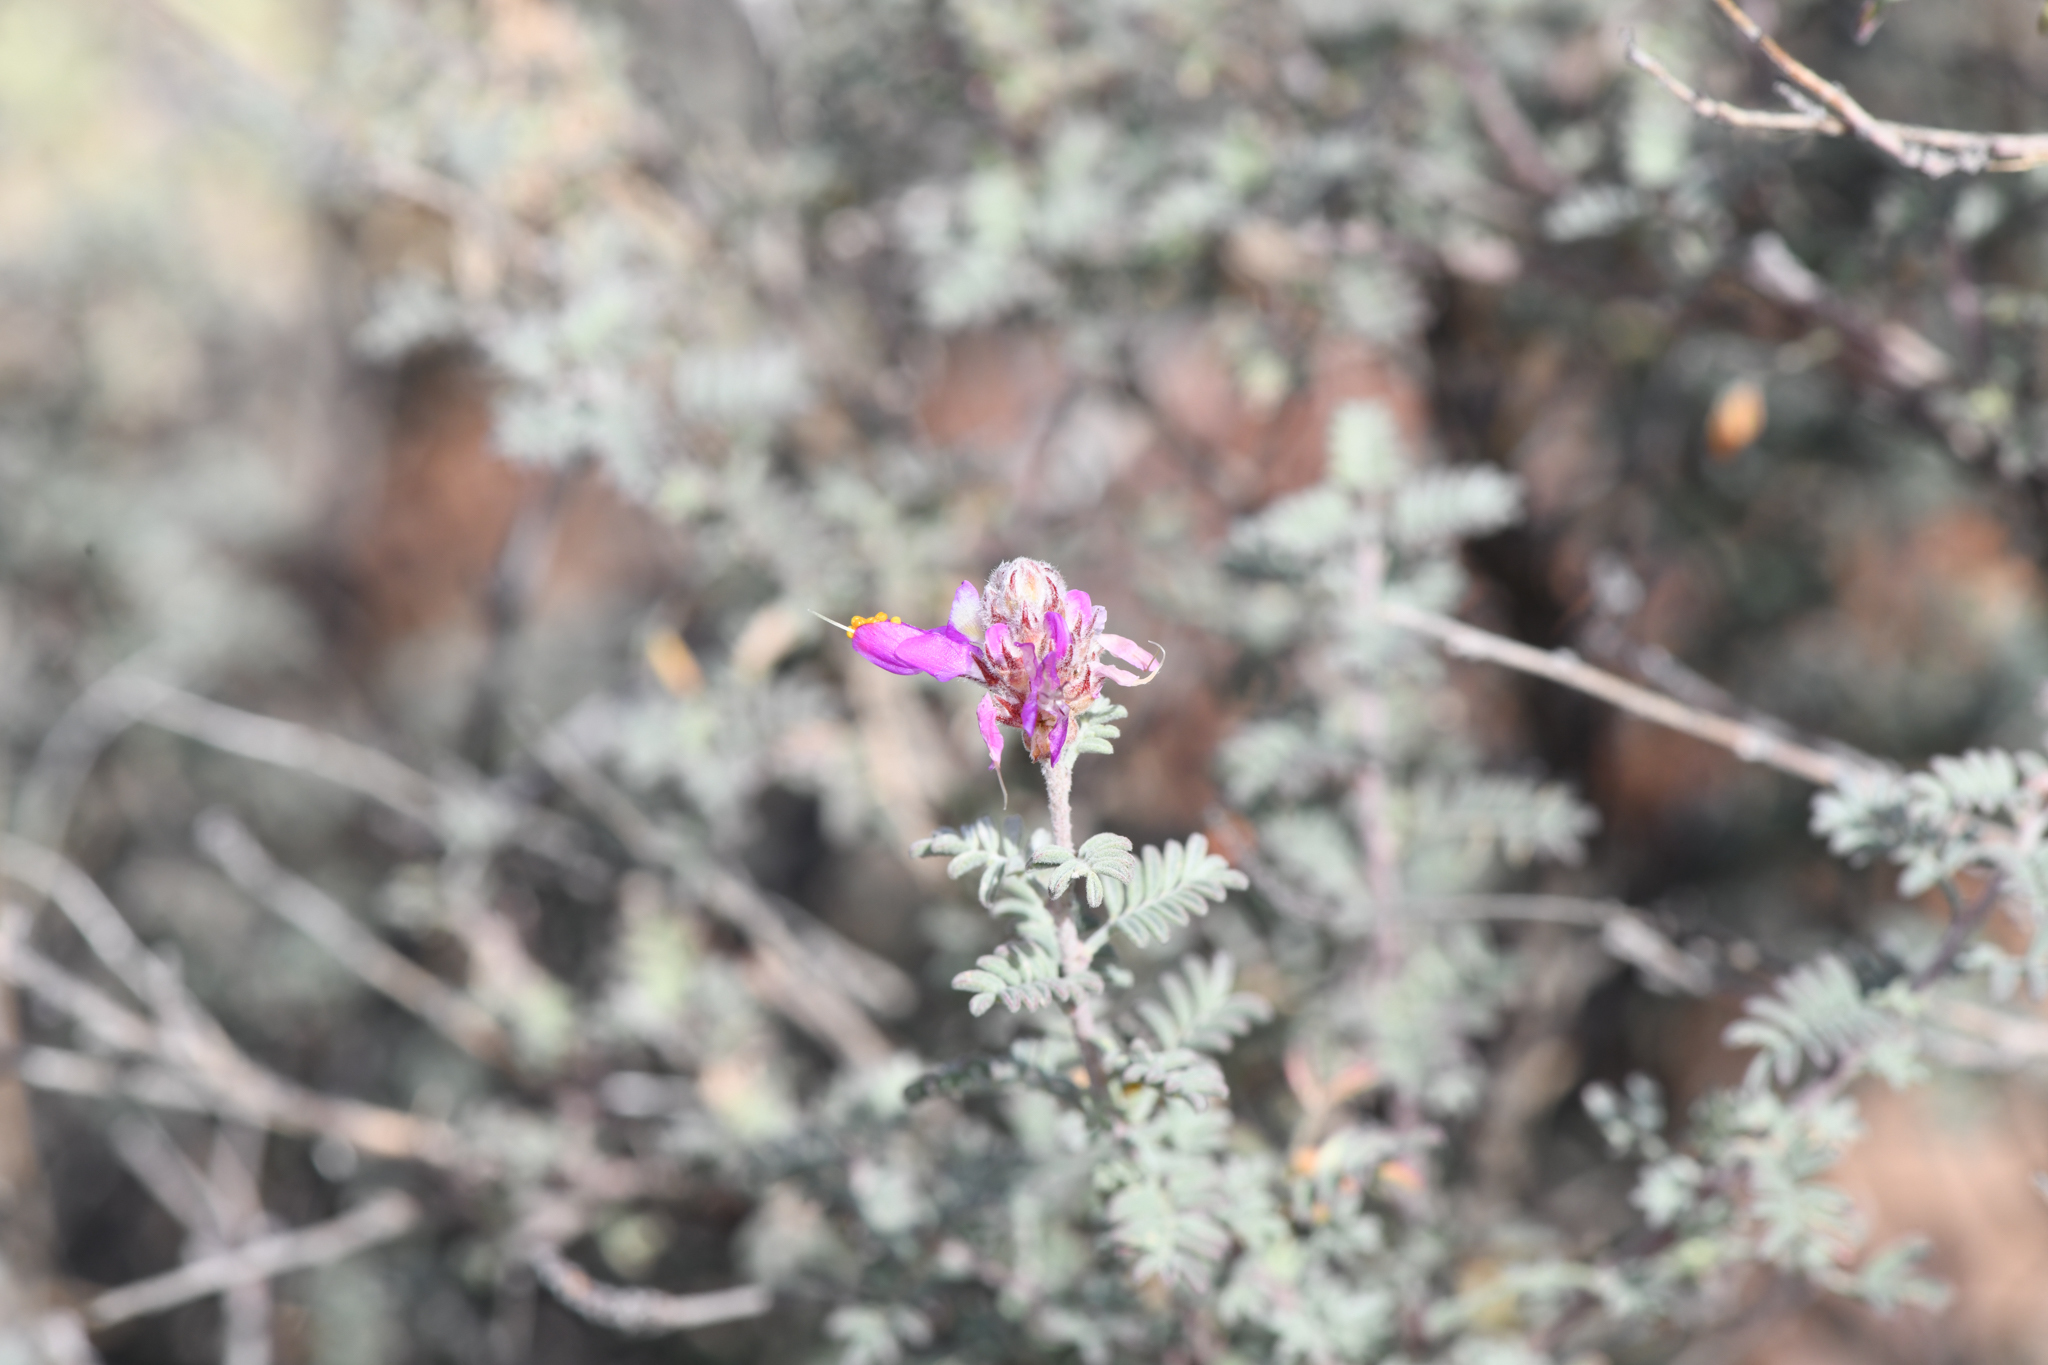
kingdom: Plantae
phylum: Tracheophyta
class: Magnoliopsida
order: Fabales
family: Fabaceae
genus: Dalea
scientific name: Dalea bicolor
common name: Silver prairie-clover
